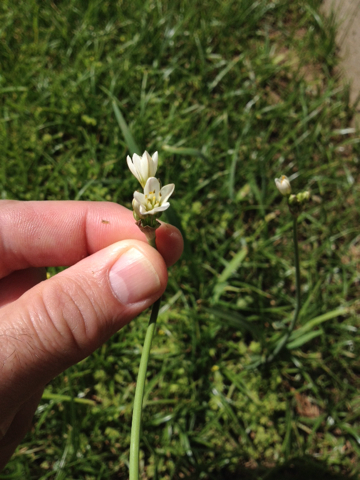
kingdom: Plantae
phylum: Tracheophyta
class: Liliopsida
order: Asparagales
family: Amaryllidaceae
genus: Allium
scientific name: Allium neapolitanum
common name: Neapolitan garlic
